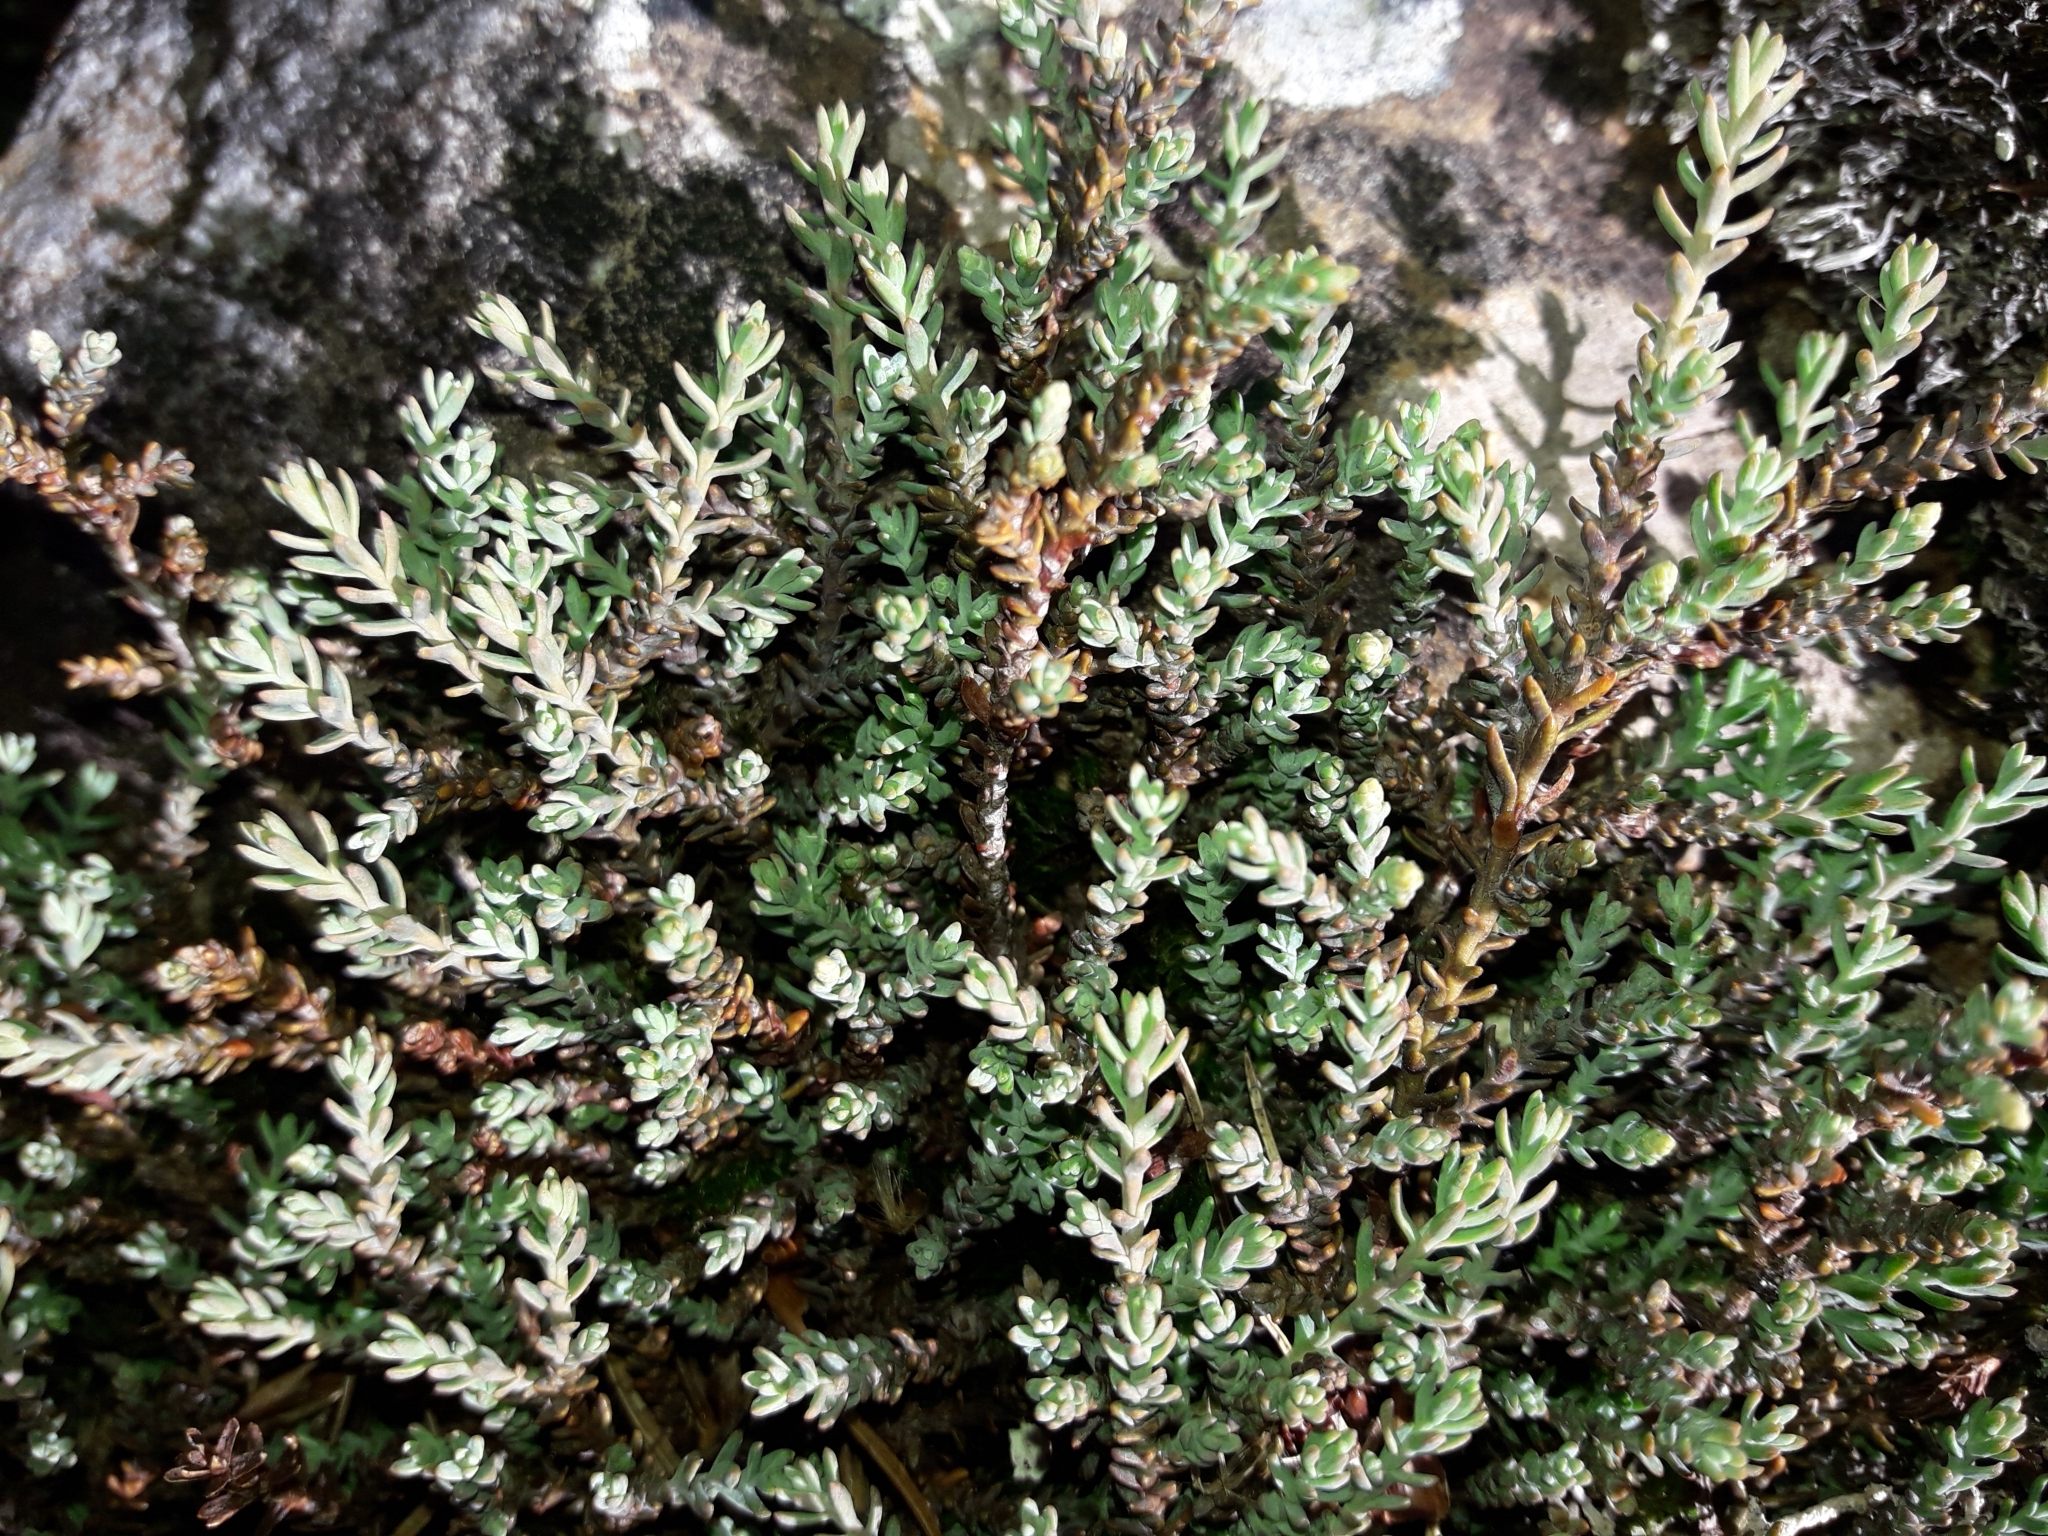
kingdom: Plantae
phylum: Tracheophyta
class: Pinopsida
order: Pinales
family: Podocarpaceae
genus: Lepidothamnus
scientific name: Lepidothamnus laxifolius
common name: Pygmy pine
